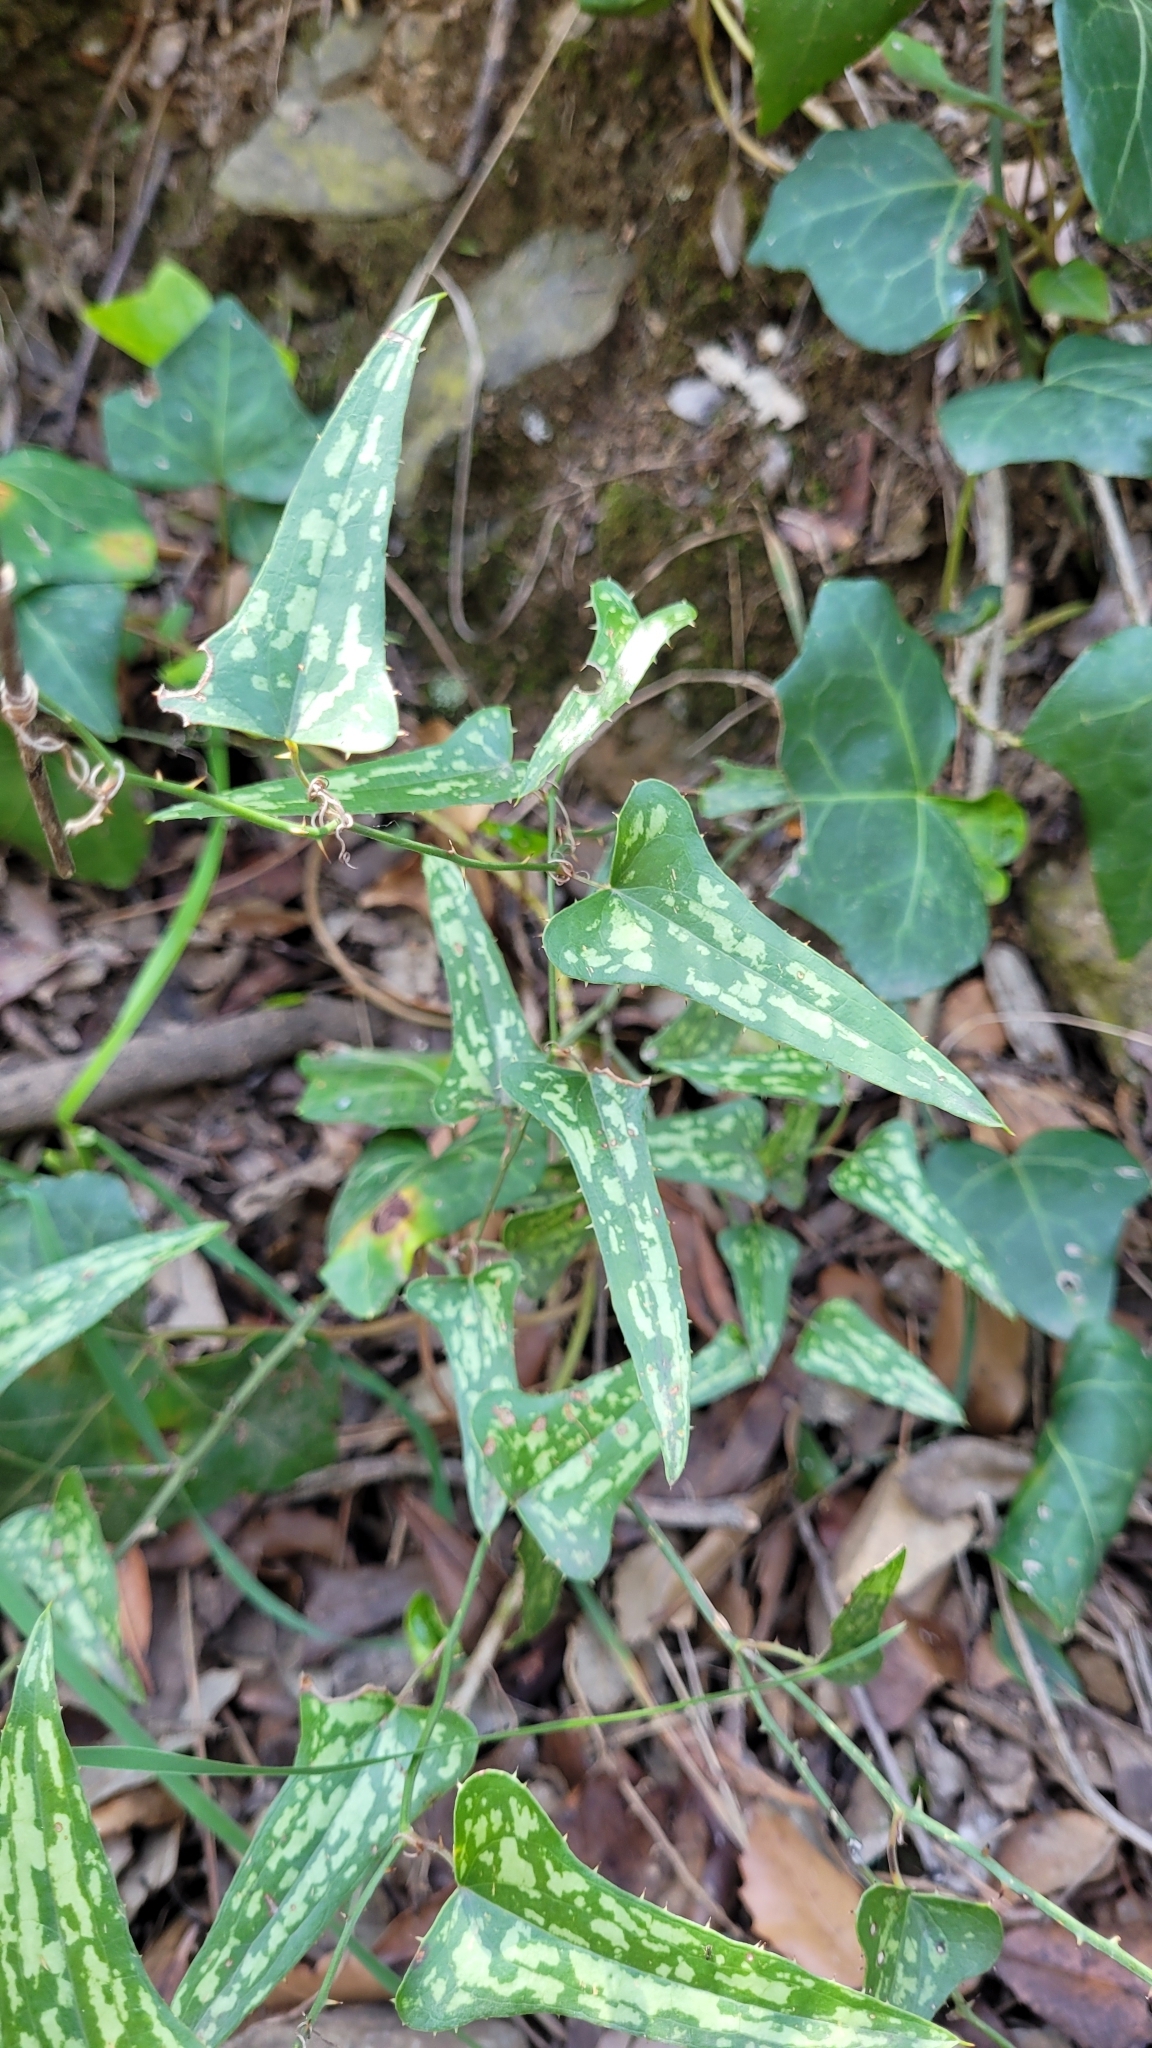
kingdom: Plantae
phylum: Tracheophyta
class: Liliopsida
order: Liliales
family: Smilacaceae
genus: Smilax
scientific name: Smilax aspera
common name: Common smilax
